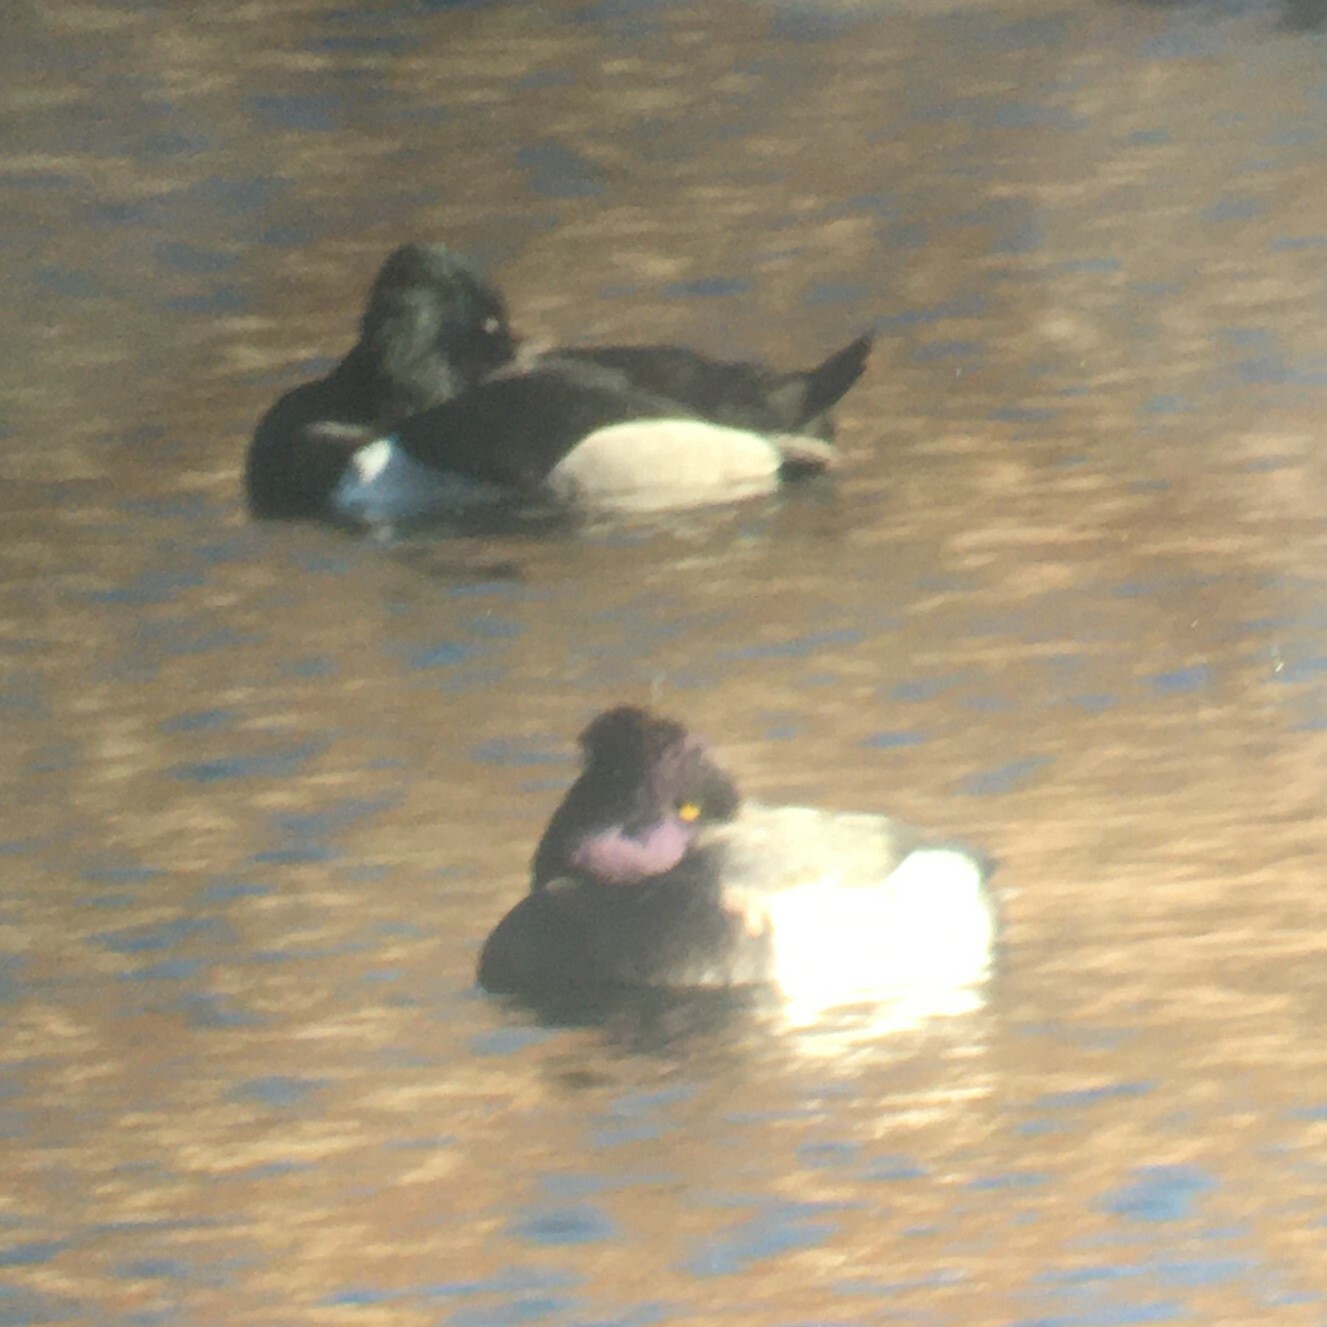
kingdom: Animalia
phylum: Chordata
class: Aves
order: Anseriformes
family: Anatidae
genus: Aythya
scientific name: Aythya
